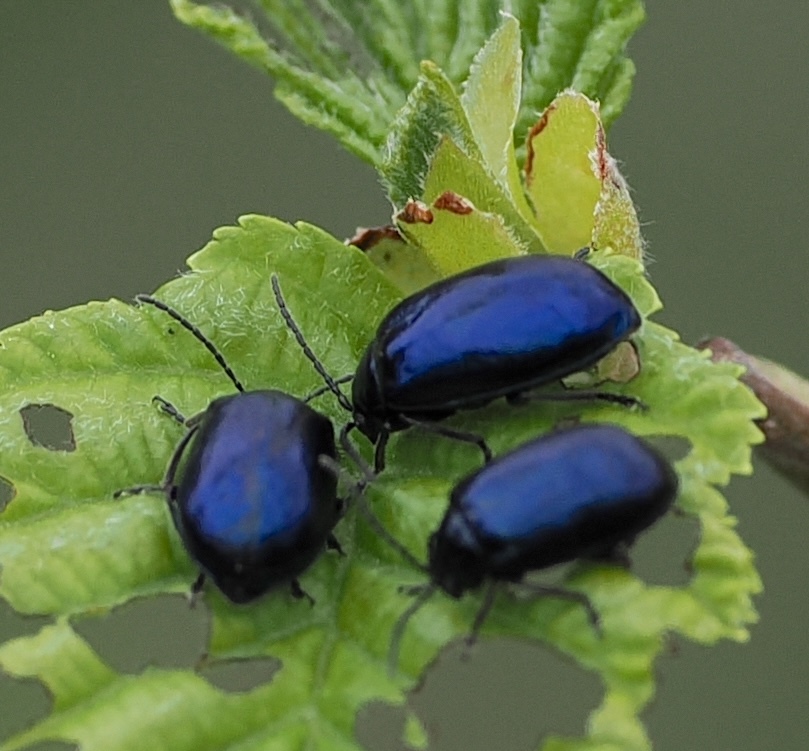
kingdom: Animalia
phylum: Arthropoda
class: Insecta
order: Coleoptera
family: Chrysomelidae
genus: Agelastica
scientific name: Agelastica alni
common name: Alder leaf beetle
